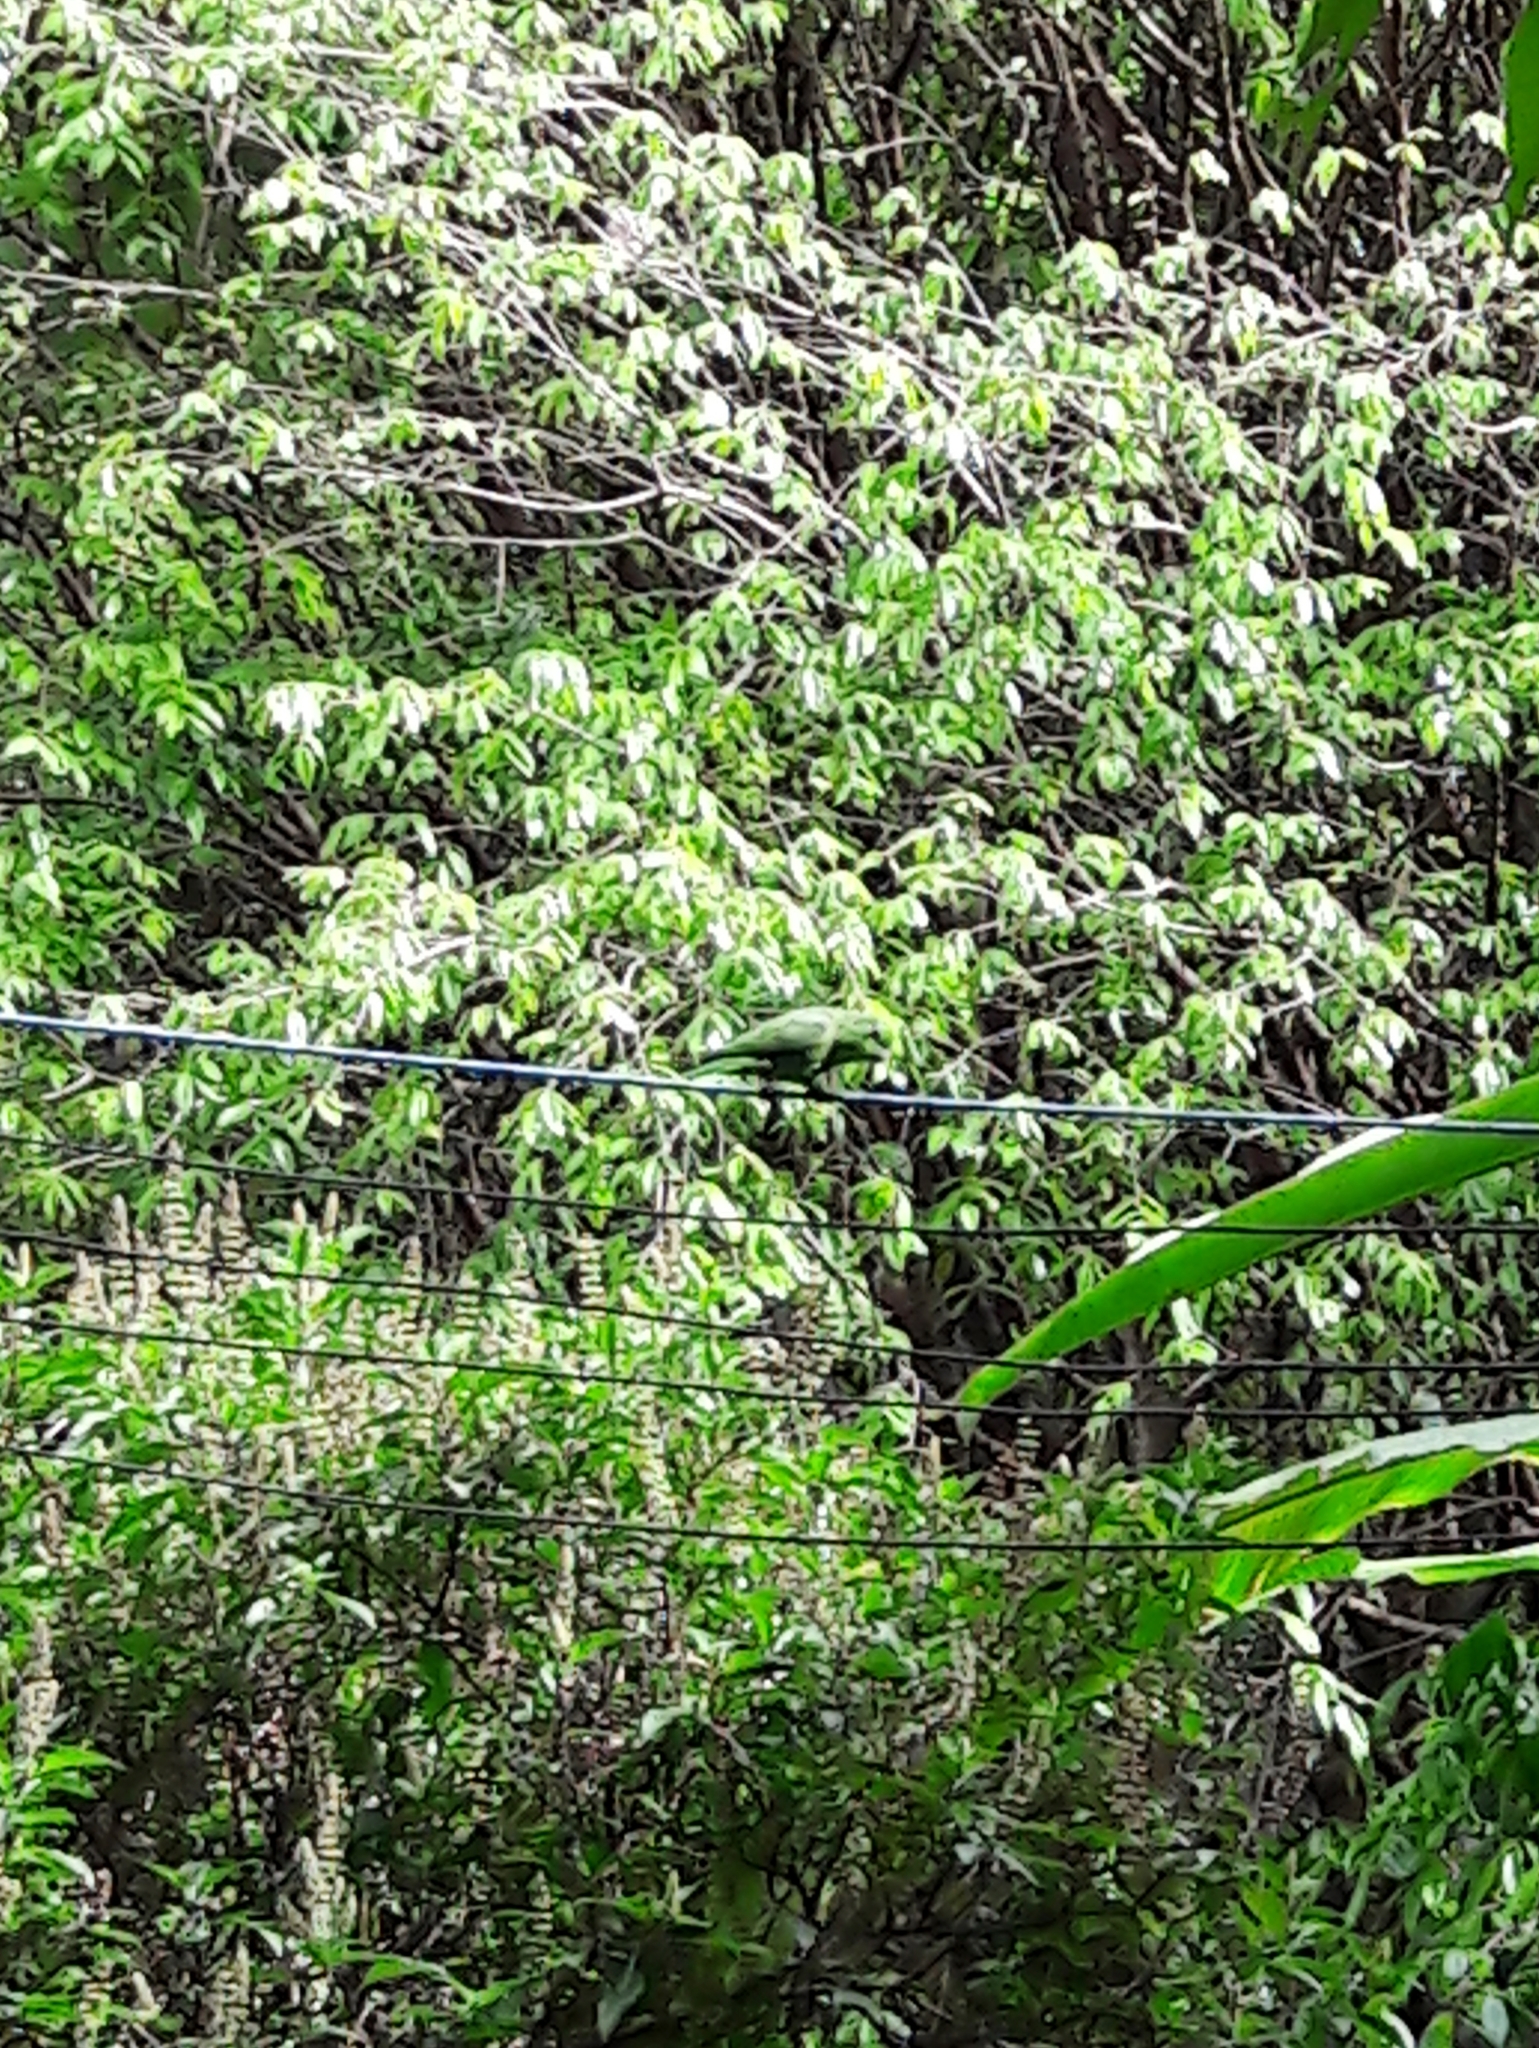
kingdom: Animalia
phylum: Chordata
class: Aves
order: Psittaciformes
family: Psittacidae
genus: Forpus
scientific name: Forpus xanthopterygius
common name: Blue-winged parrotlet
